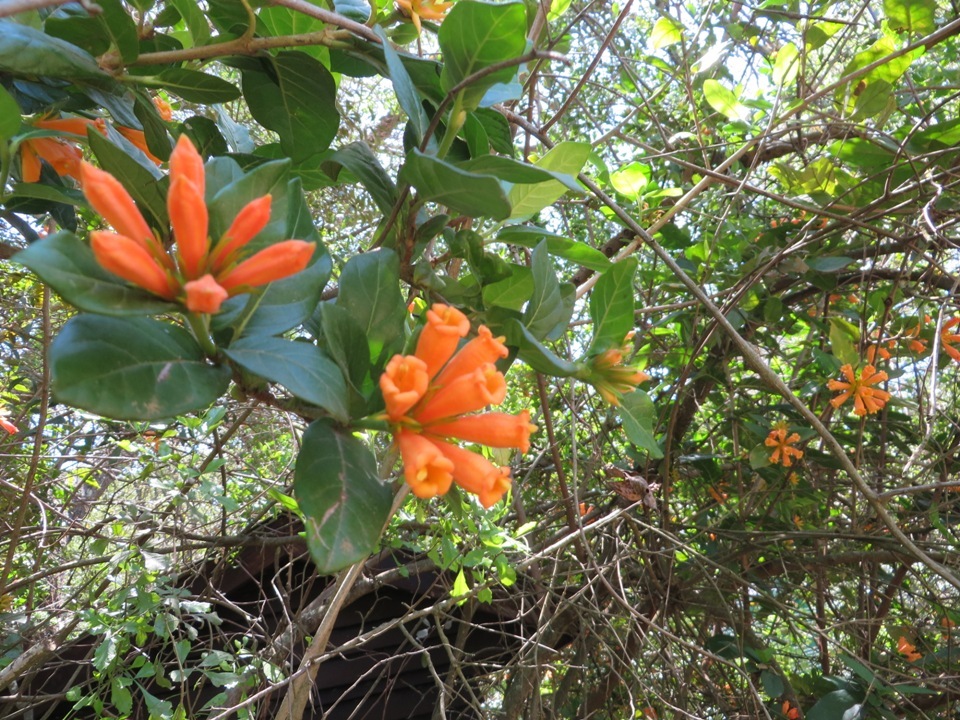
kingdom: Plantae
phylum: Tracheophyta
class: Magnoliopsida
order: Gentianales
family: Rubiaceae
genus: Burchellia
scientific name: Burchellia bubalina
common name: Wild pomegranate
